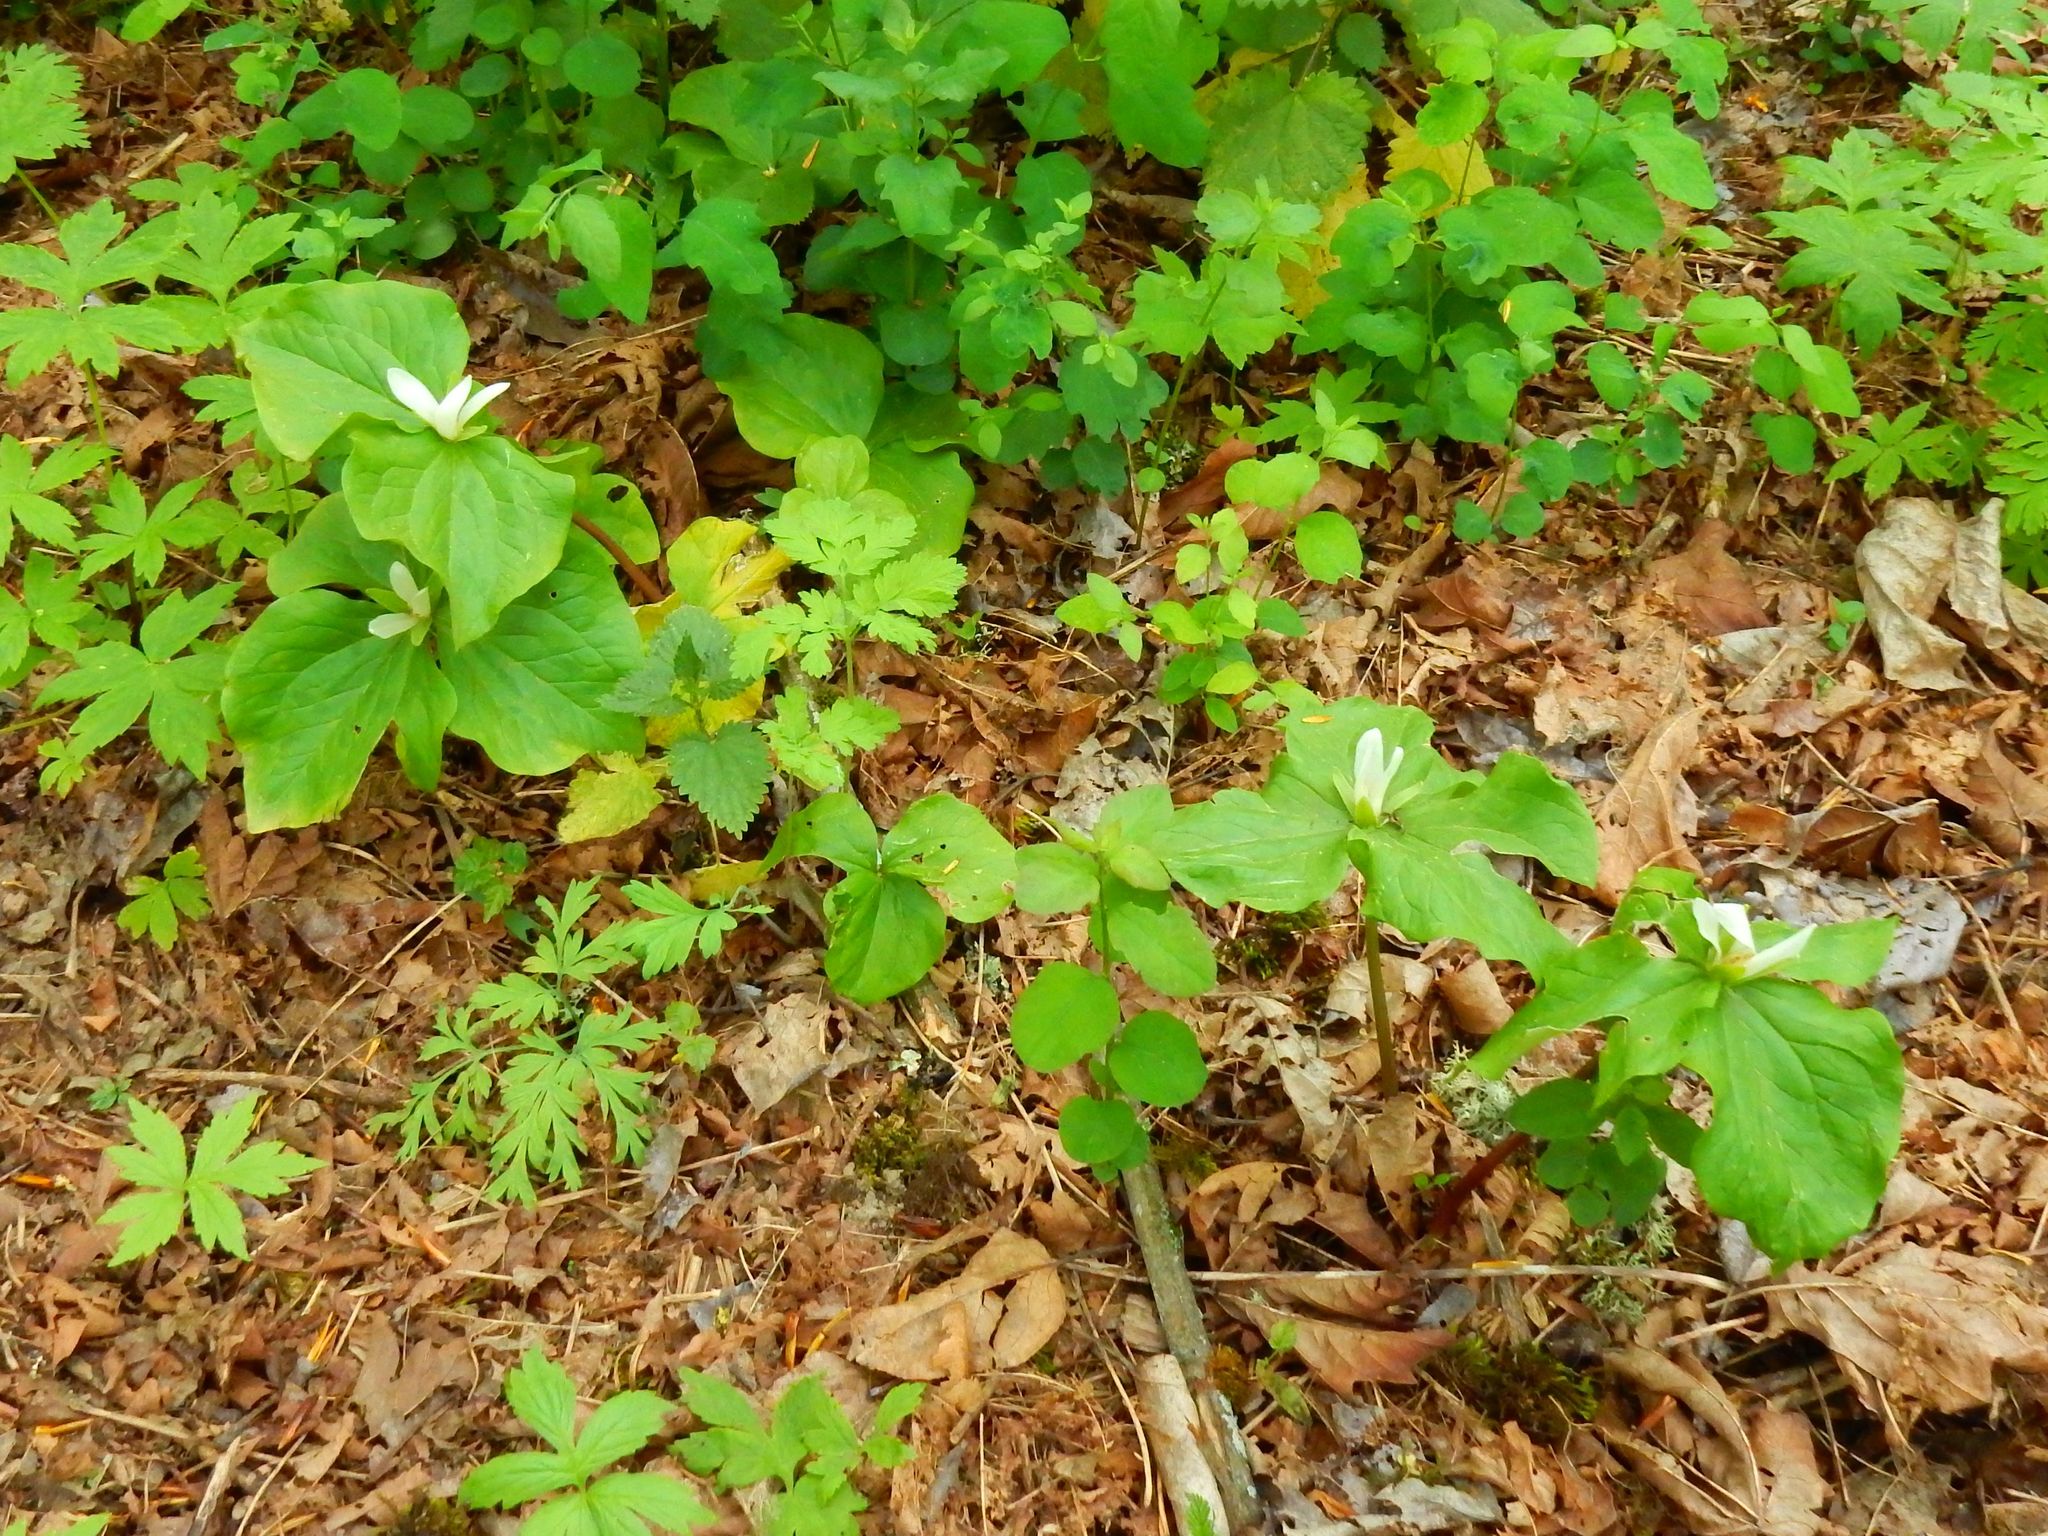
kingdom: Plantae
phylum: Tracheophyta
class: Liliopsida
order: Liliales
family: Melanthiaceae
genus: Trillium
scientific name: Trillium albidum
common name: Freeman's trillium
